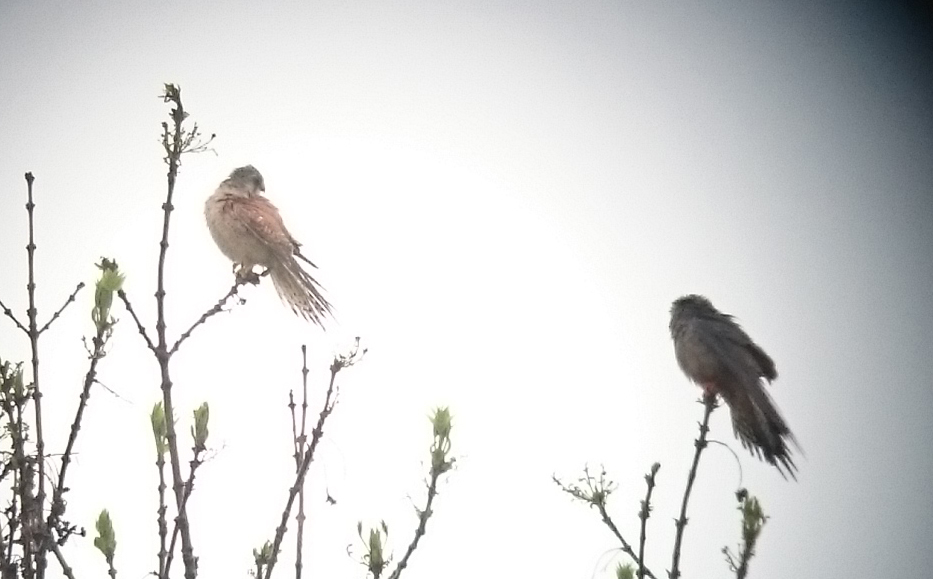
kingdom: Animalia
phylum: Chordata
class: Aves
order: Falconiformes
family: Falconidae
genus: Falco
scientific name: Falco naumanni
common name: Lesser kestrel
